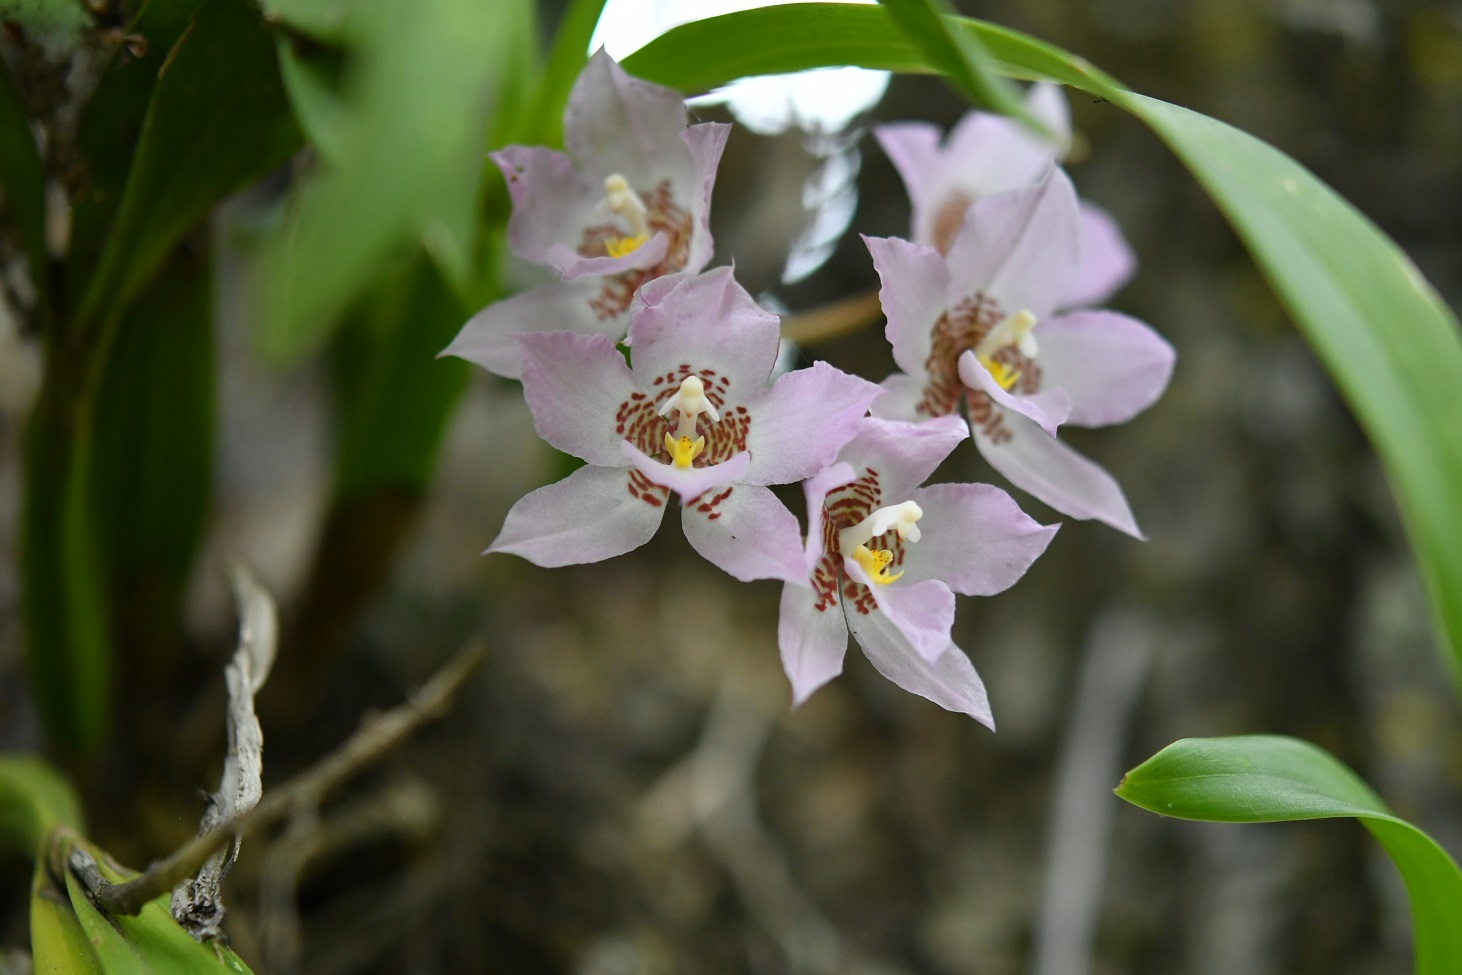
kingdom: Plantae
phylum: Tracheophyta
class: Liliopsida
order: Asparagales
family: Orchidaceae
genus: Rhynchostele
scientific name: Rhynchostele cervantesii
